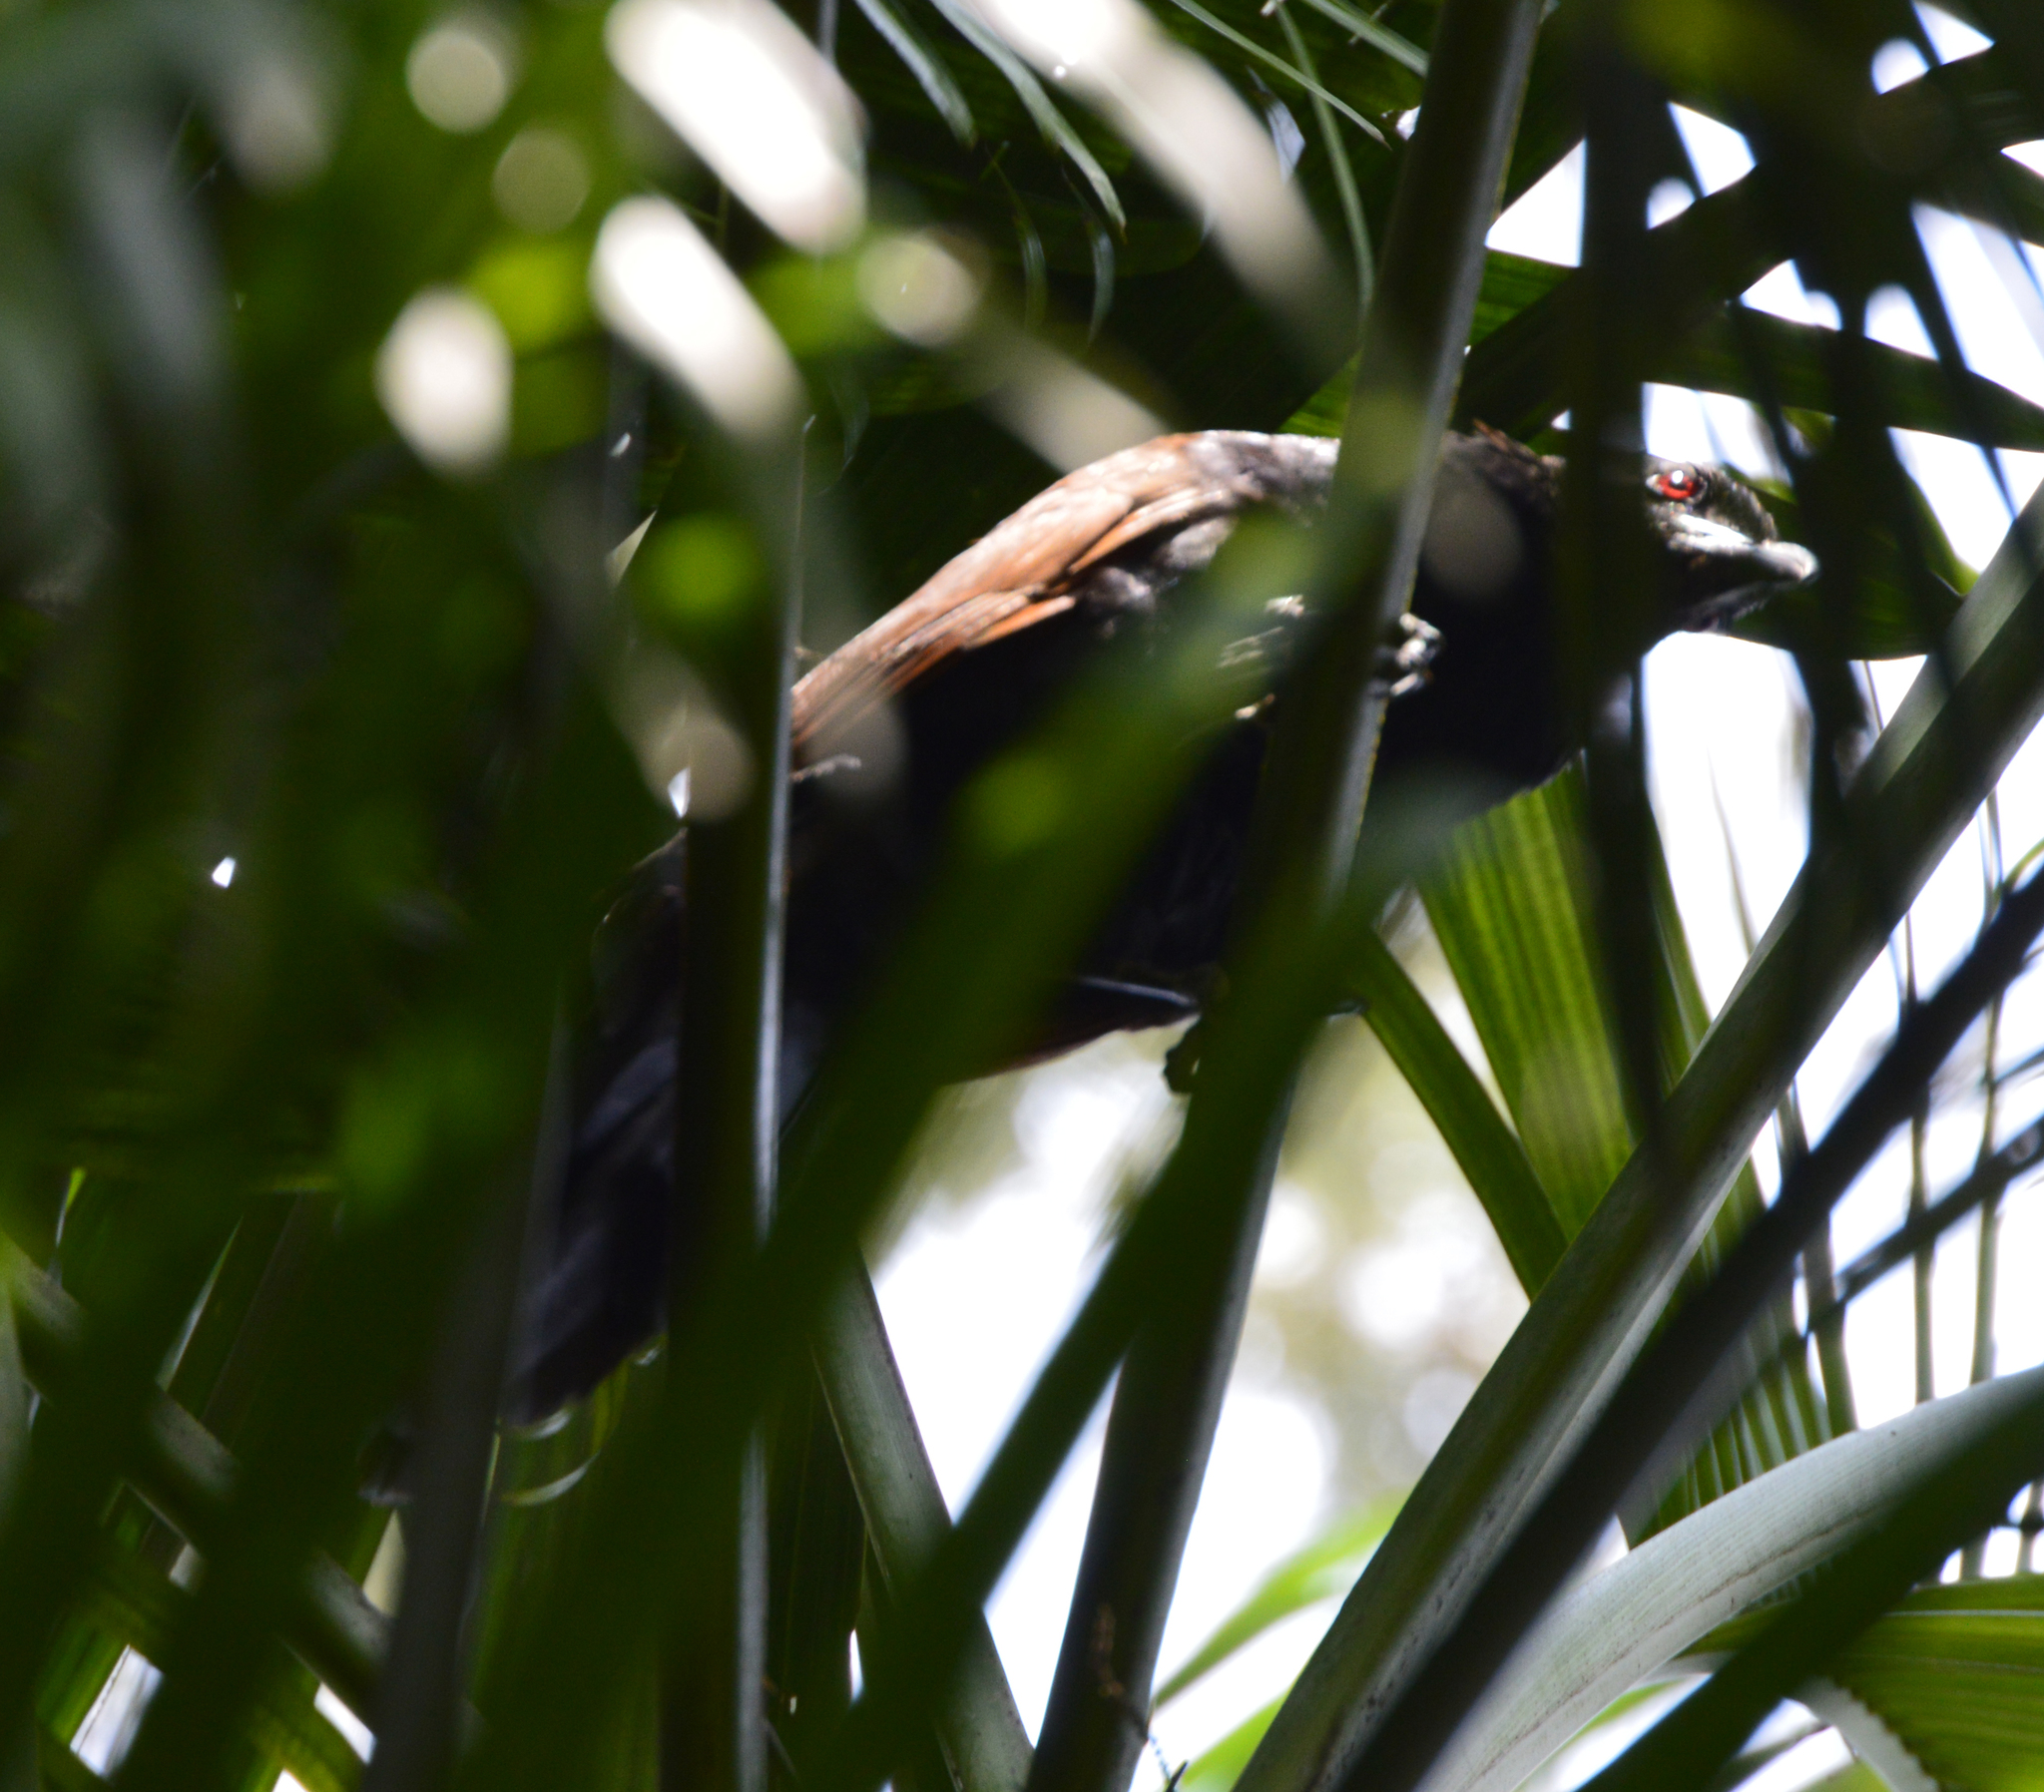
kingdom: Animalia
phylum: Chordata
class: Aves
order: Cuculiformes
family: Cuculidae
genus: Centropus
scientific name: Centropus sinensis
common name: Greater coucal
